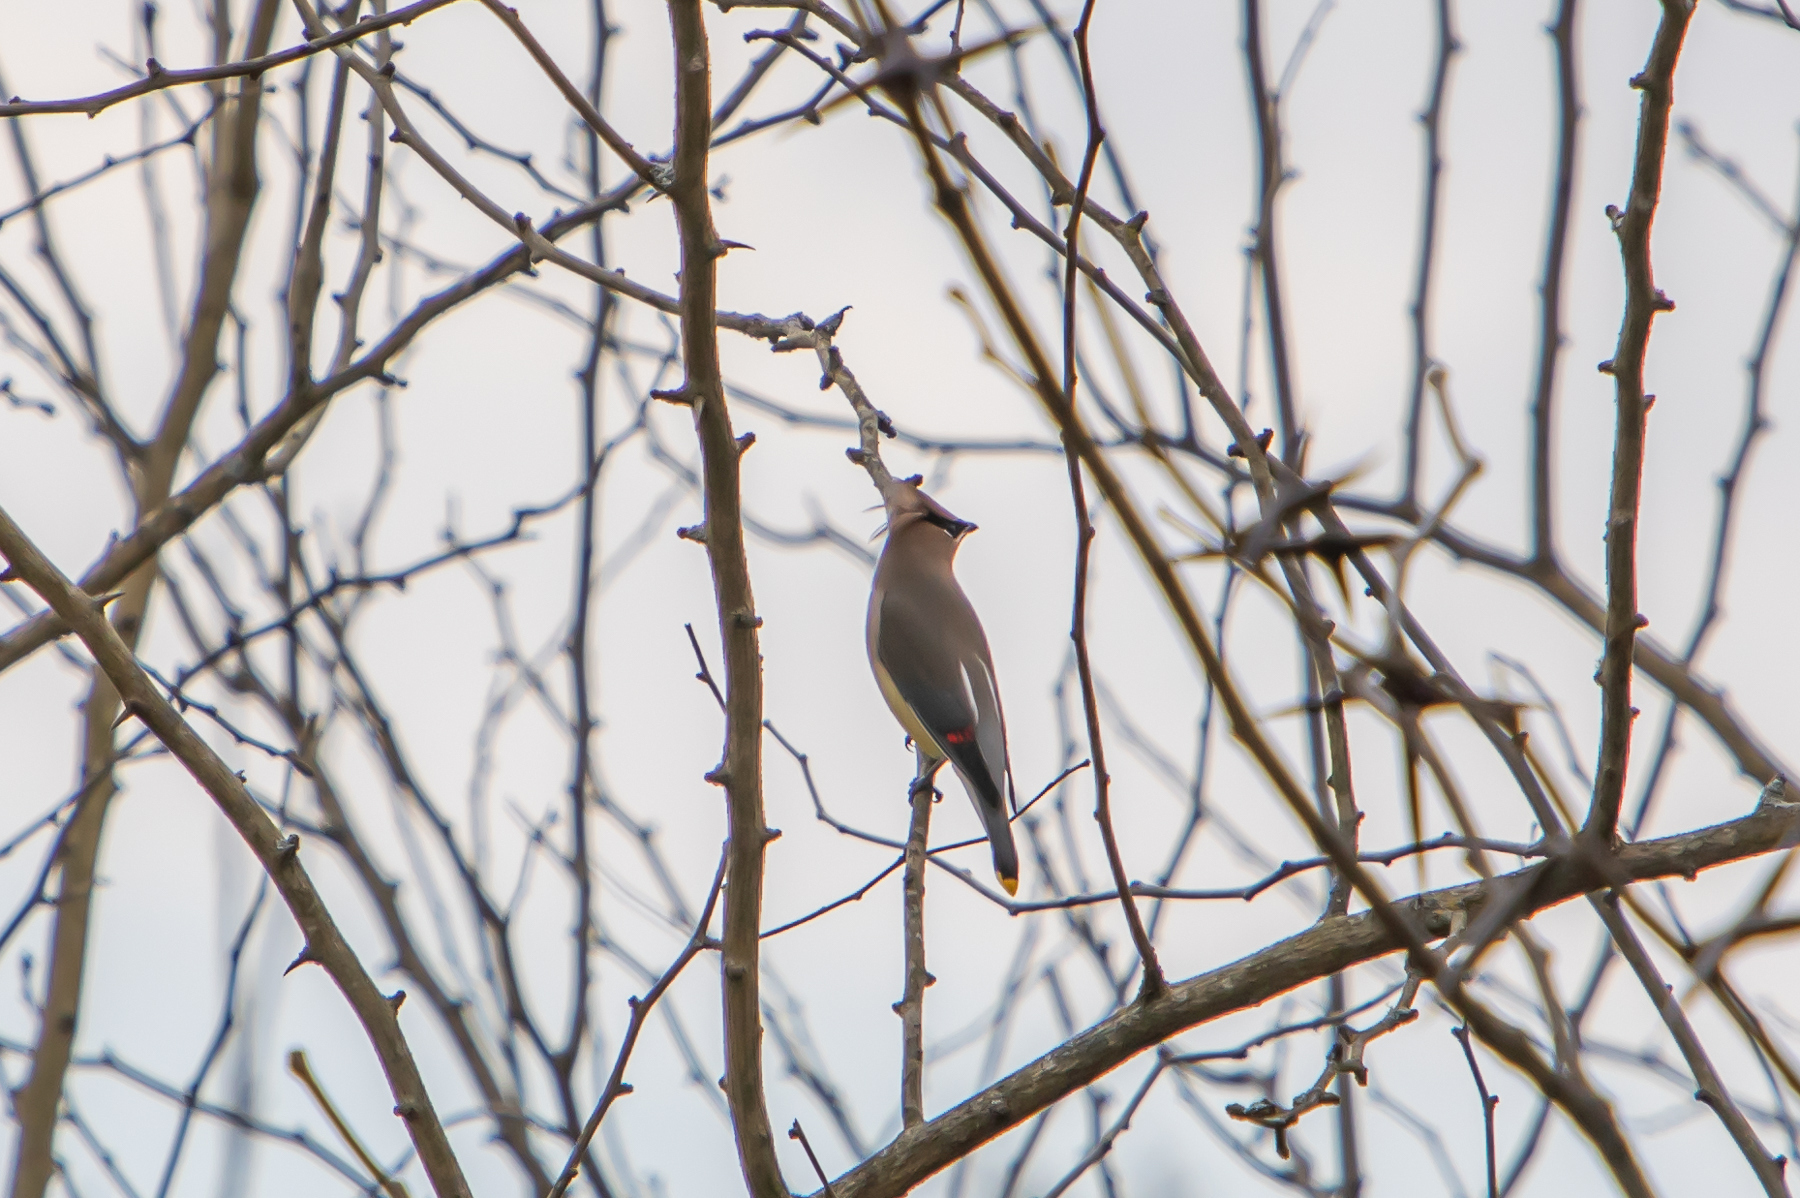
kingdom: Animalia
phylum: Chordata
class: Aves
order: Passeriformes
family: Bombycillidae
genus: Bombycilla
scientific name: Bombycilla cedrorum
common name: Cedar waxwing
